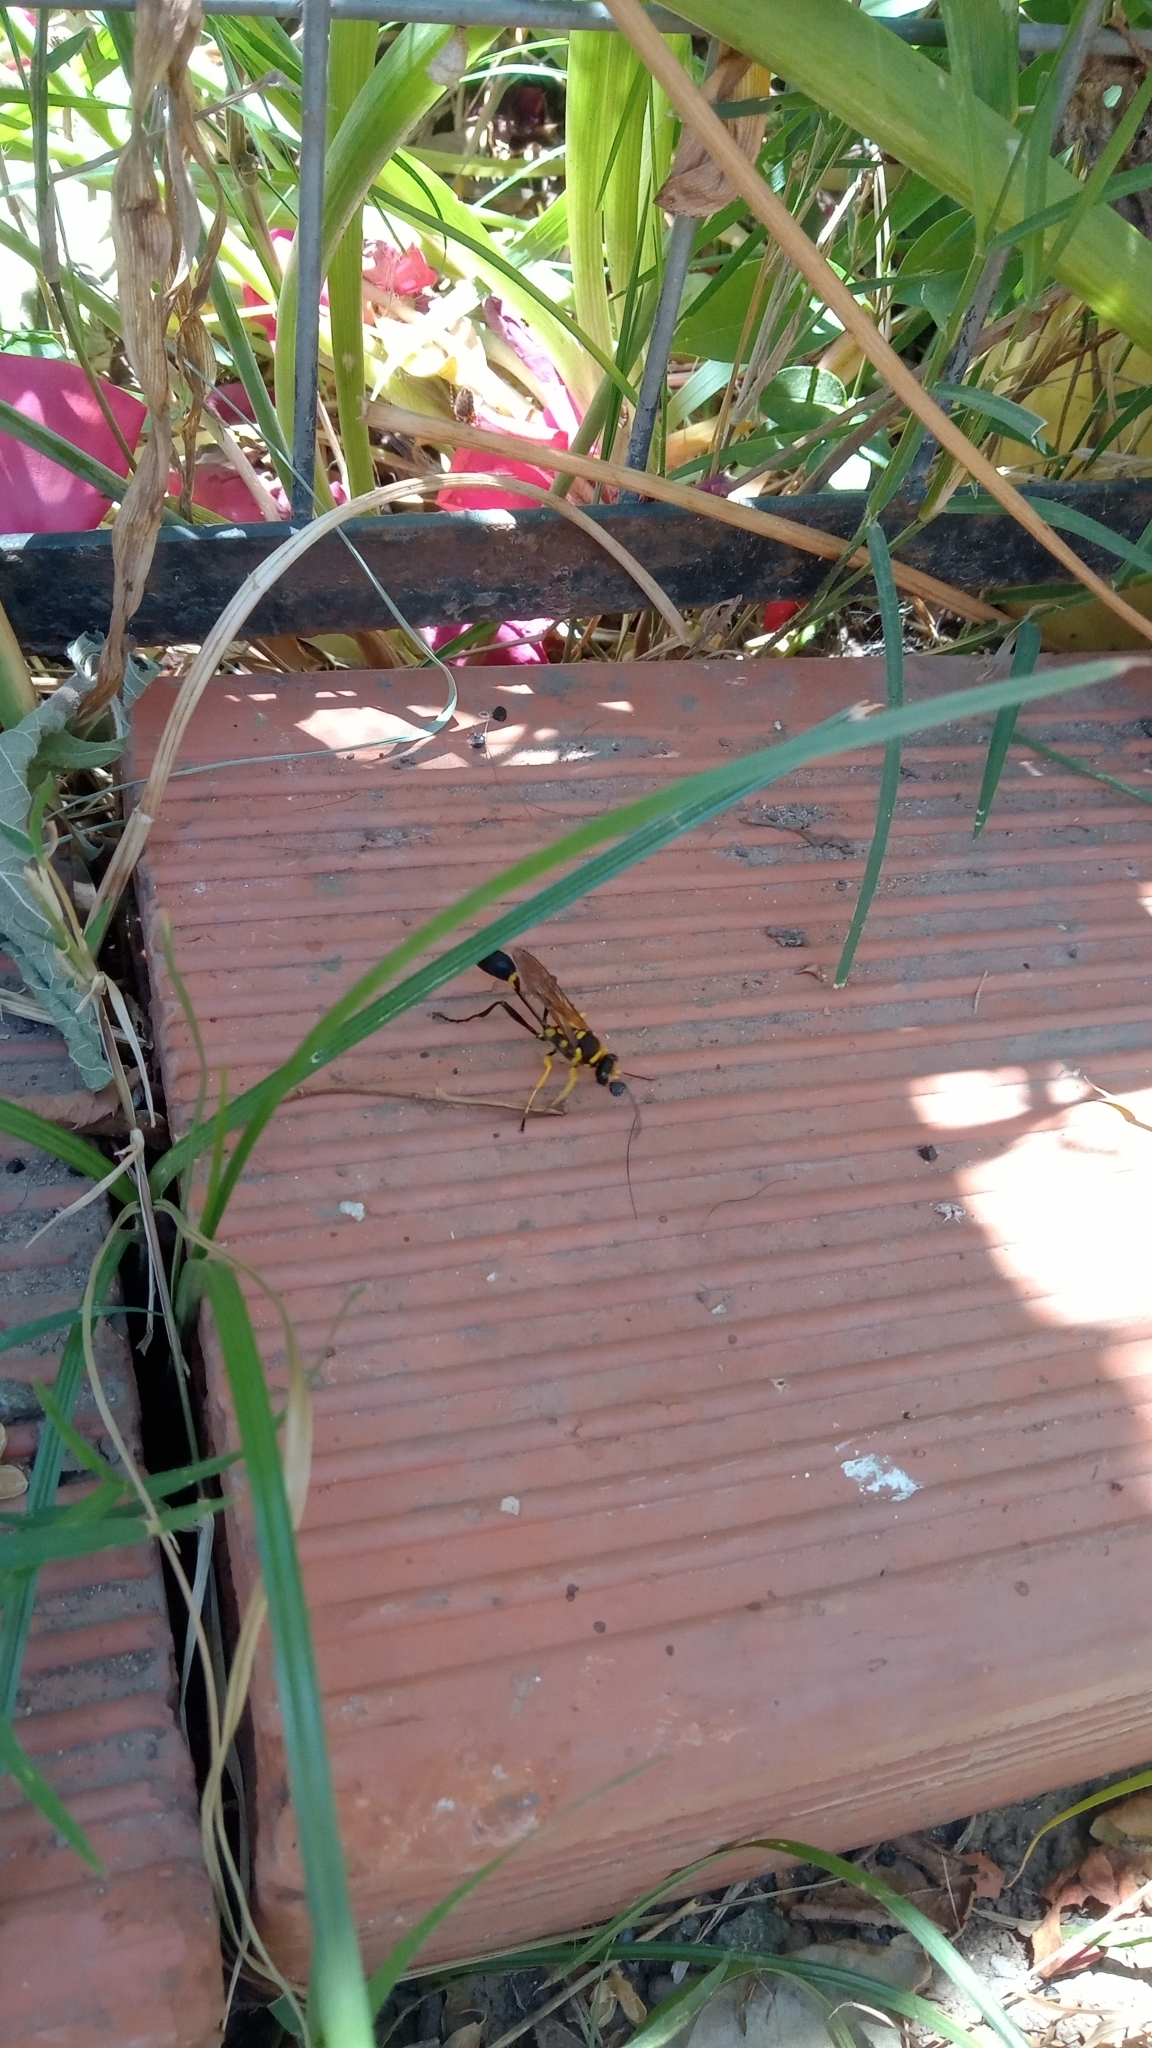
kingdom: Animalia
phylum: Arthropoda
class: Insecta
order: Hymenoptera
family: Sphecidae
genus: Sceliphron
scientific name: Sceliphron fistularium
